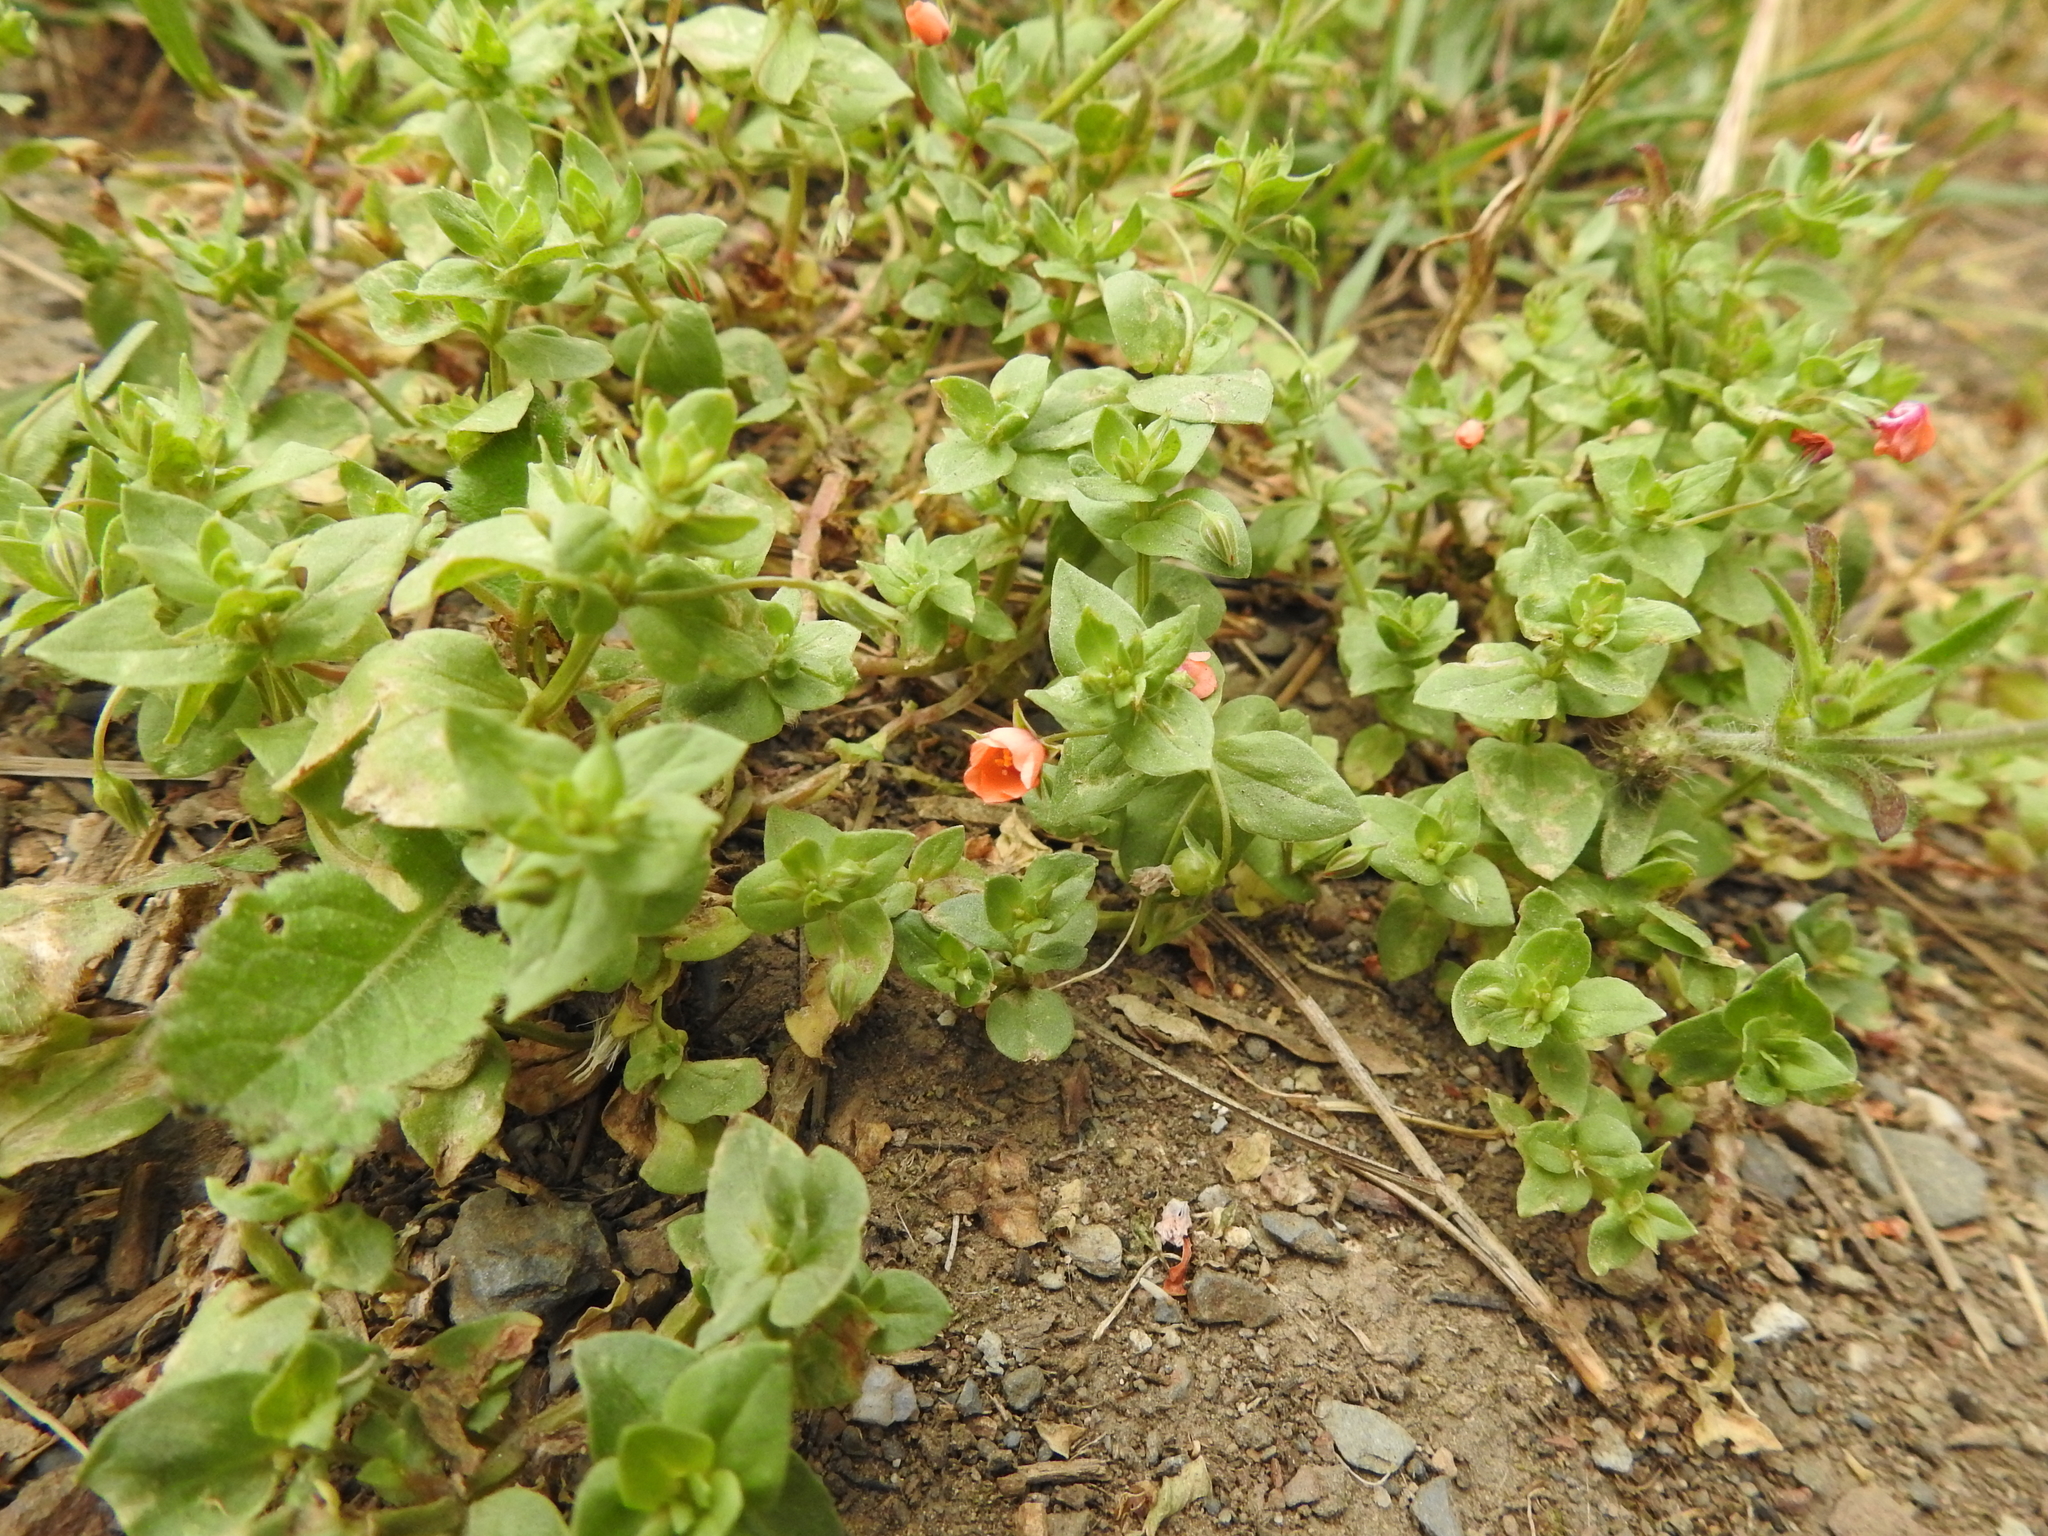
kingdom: Plantae
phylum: Tracheophyta
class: Magnoliopsida
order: Ericales
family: Primulaceae
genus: Lysimachia
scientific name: Lysimachia arvensis
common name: Scarlet pimpernel
